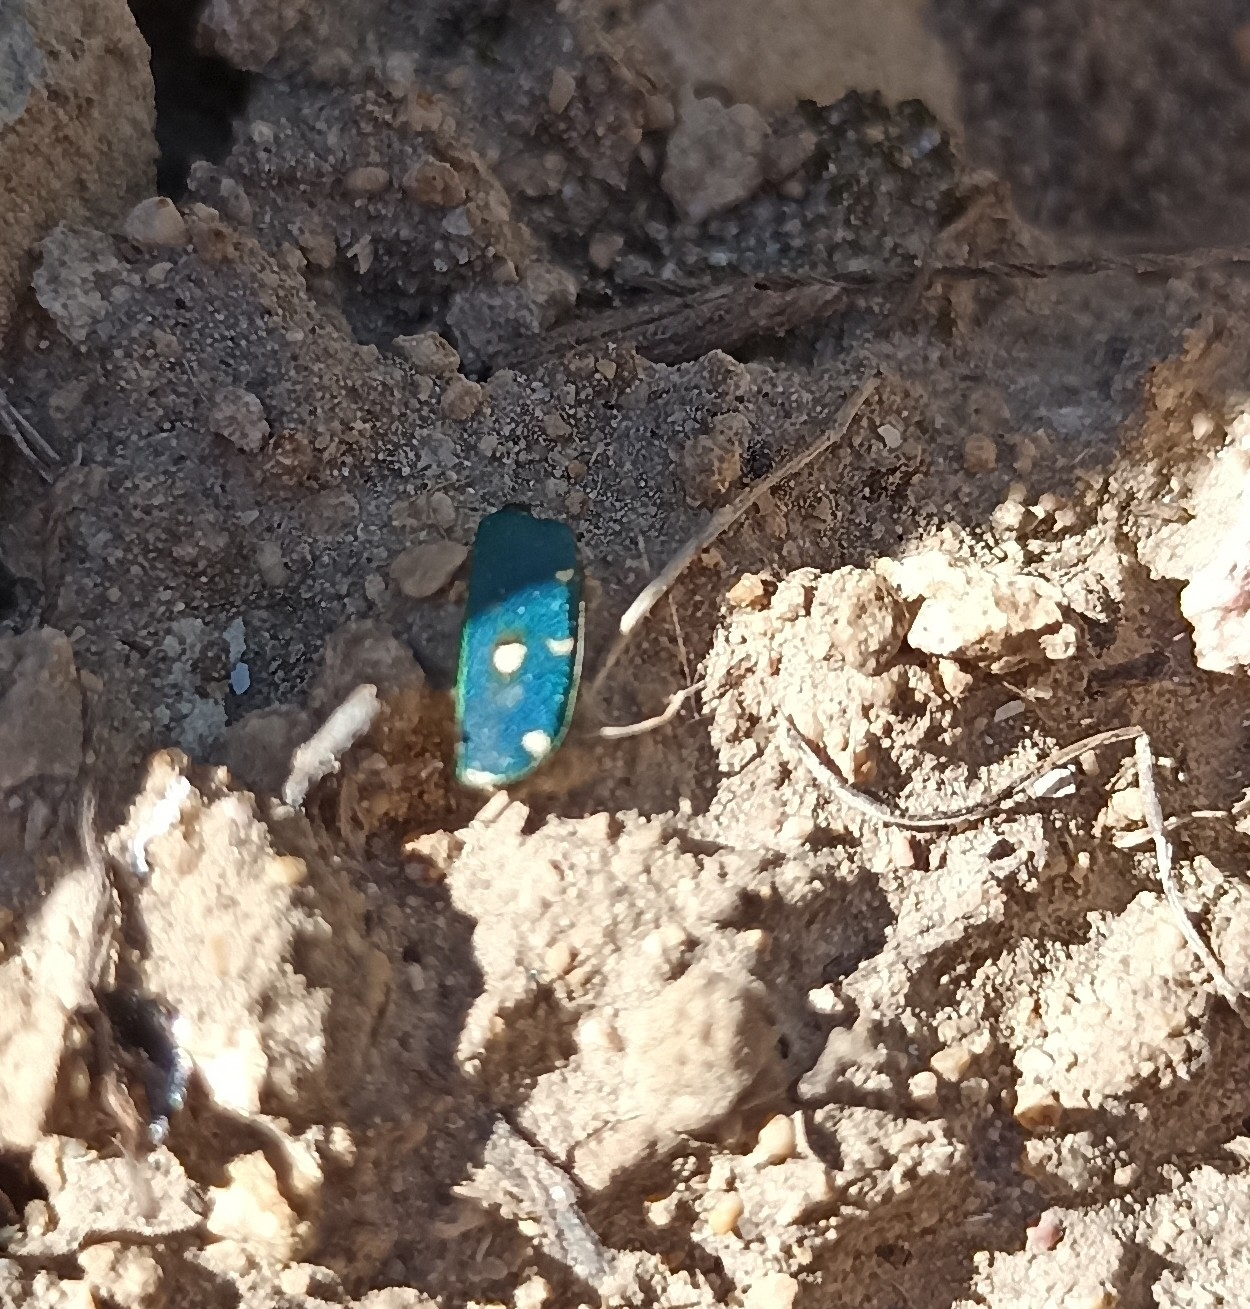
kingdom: Animalia
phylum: Arthropoda
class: Insecta
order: Coleoptera
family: Carabidae
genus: Cicindela
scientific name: Cicindela campestris
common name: Common tiger beetle
